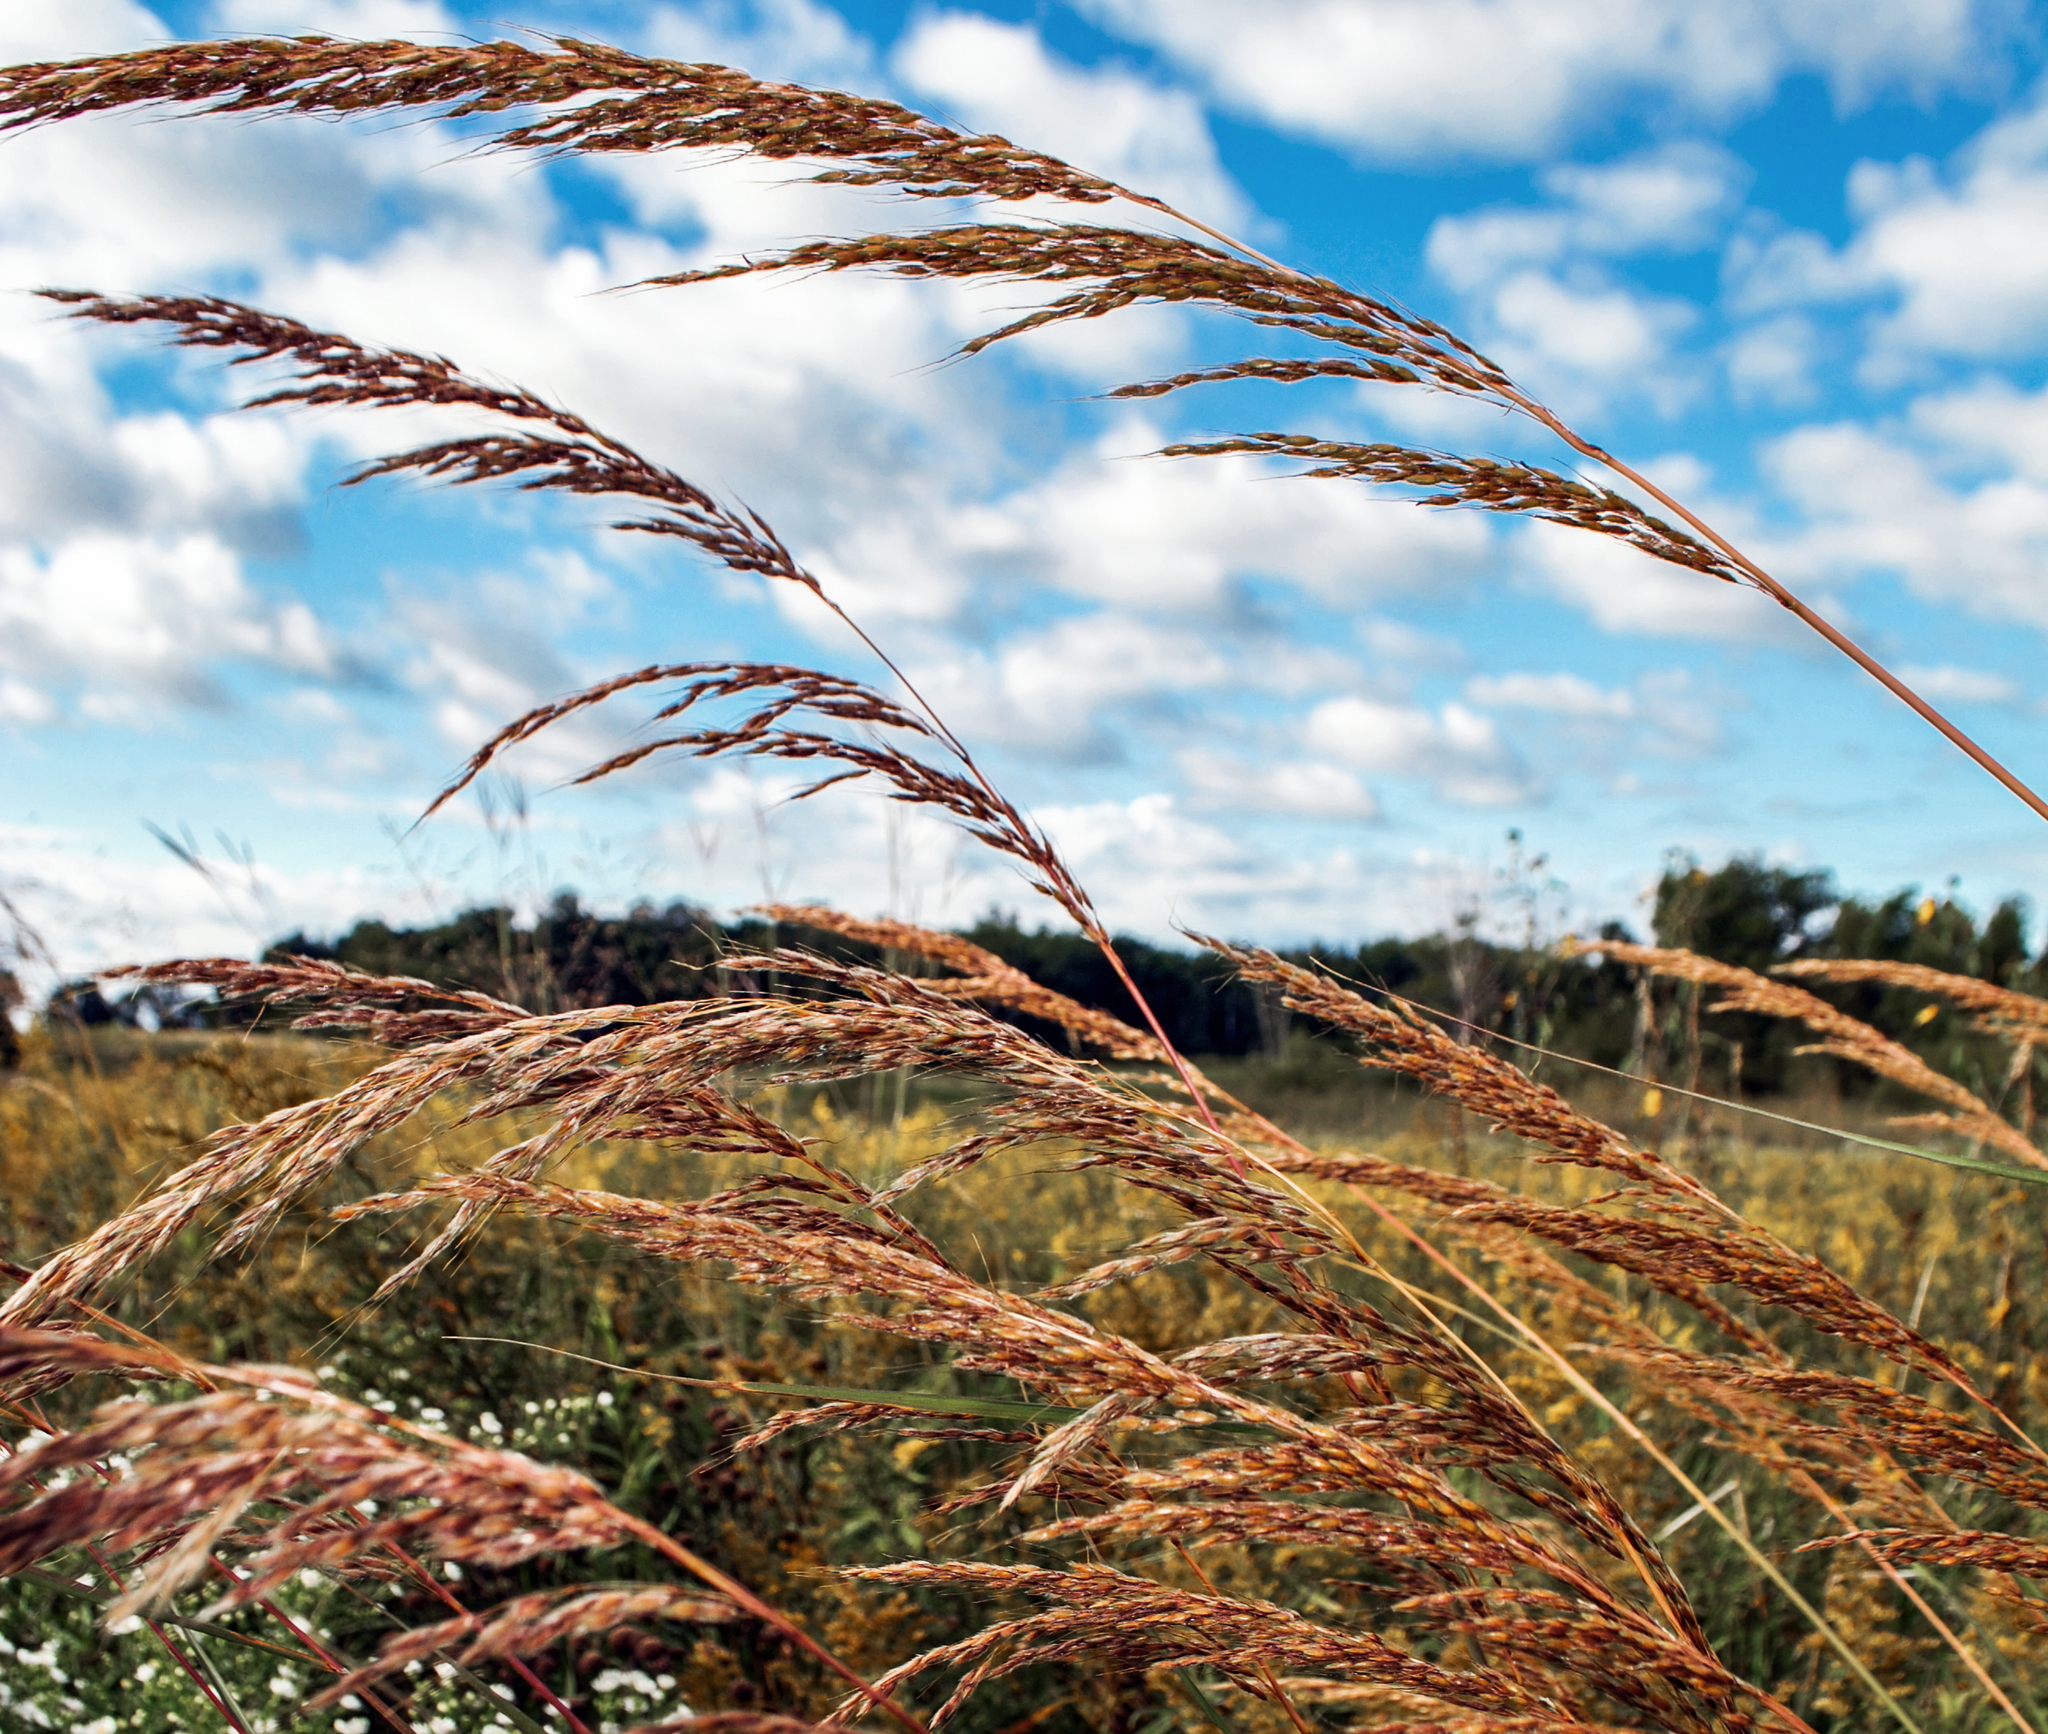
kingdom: Plantae
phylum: Tracheophyta
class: Liliopsida
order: Poales
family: Poaceae
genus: Sorghastrum
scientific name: Sorghastrum nutans
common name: Indian grass
